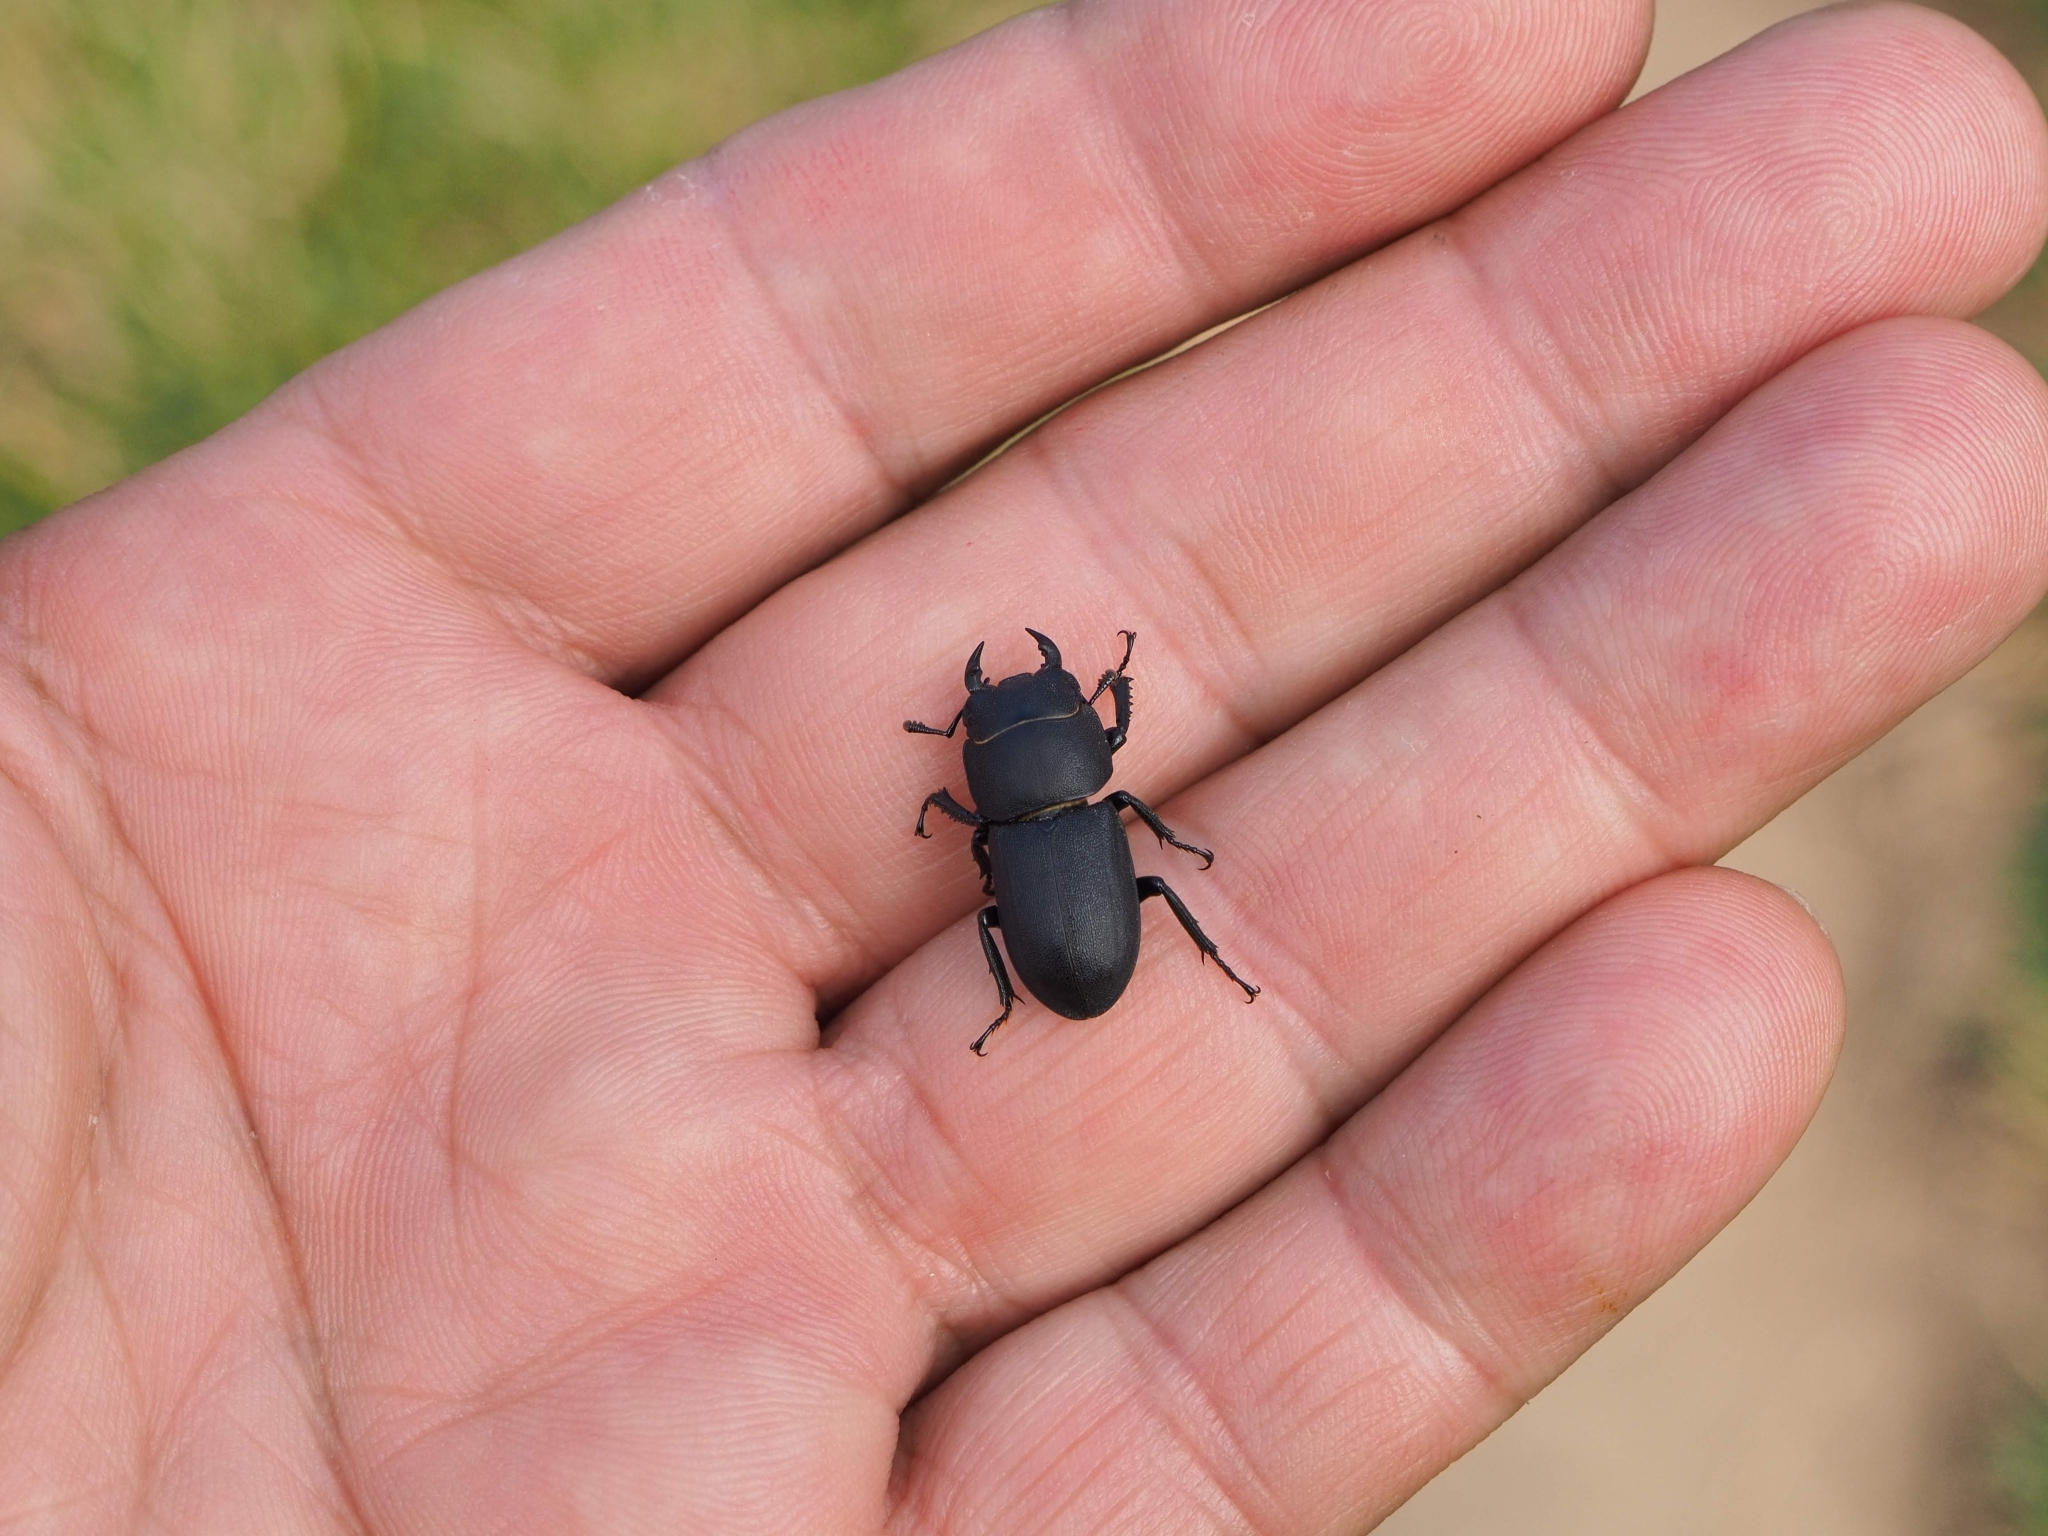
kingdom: Animalia
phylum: Arthropoda
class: Insecta
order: Coleoptera
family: Lucanidae
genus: Dorcus
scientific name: Dorcus parallelipipedus
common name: Lesser stag beetle
